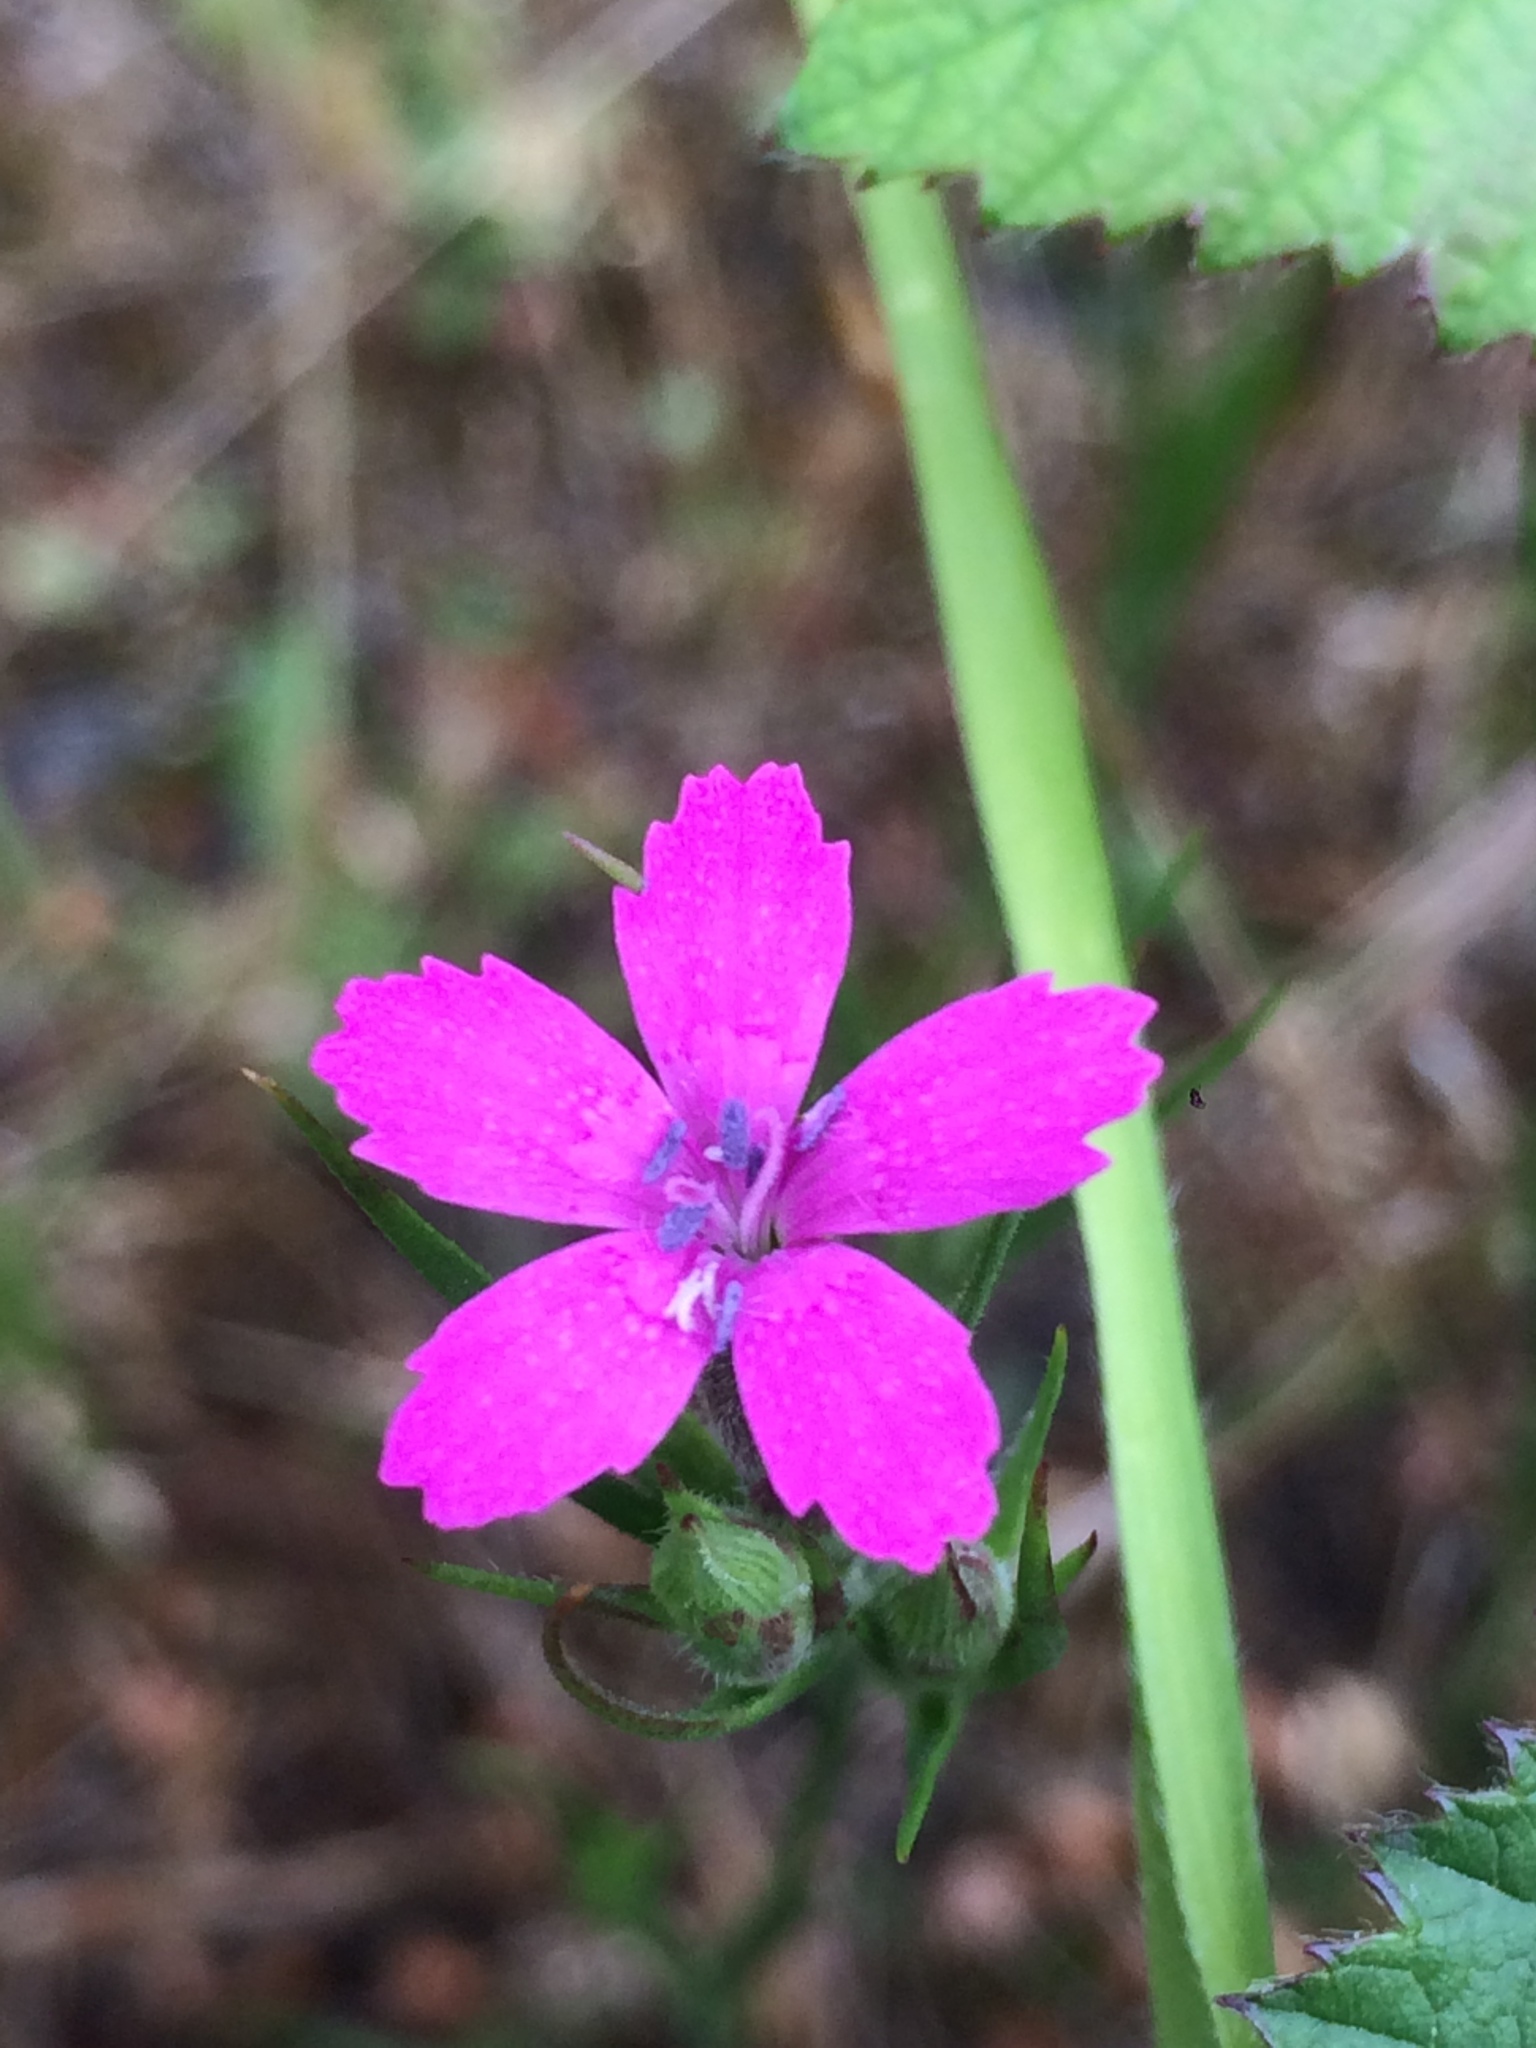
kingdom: Plantae
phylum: Tracheophyta
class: Magnoliopsida
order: Caryophyllales
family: Caryophyllaceae
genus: Dianthus
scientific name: Dianthus armeria
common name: Deptford pink
